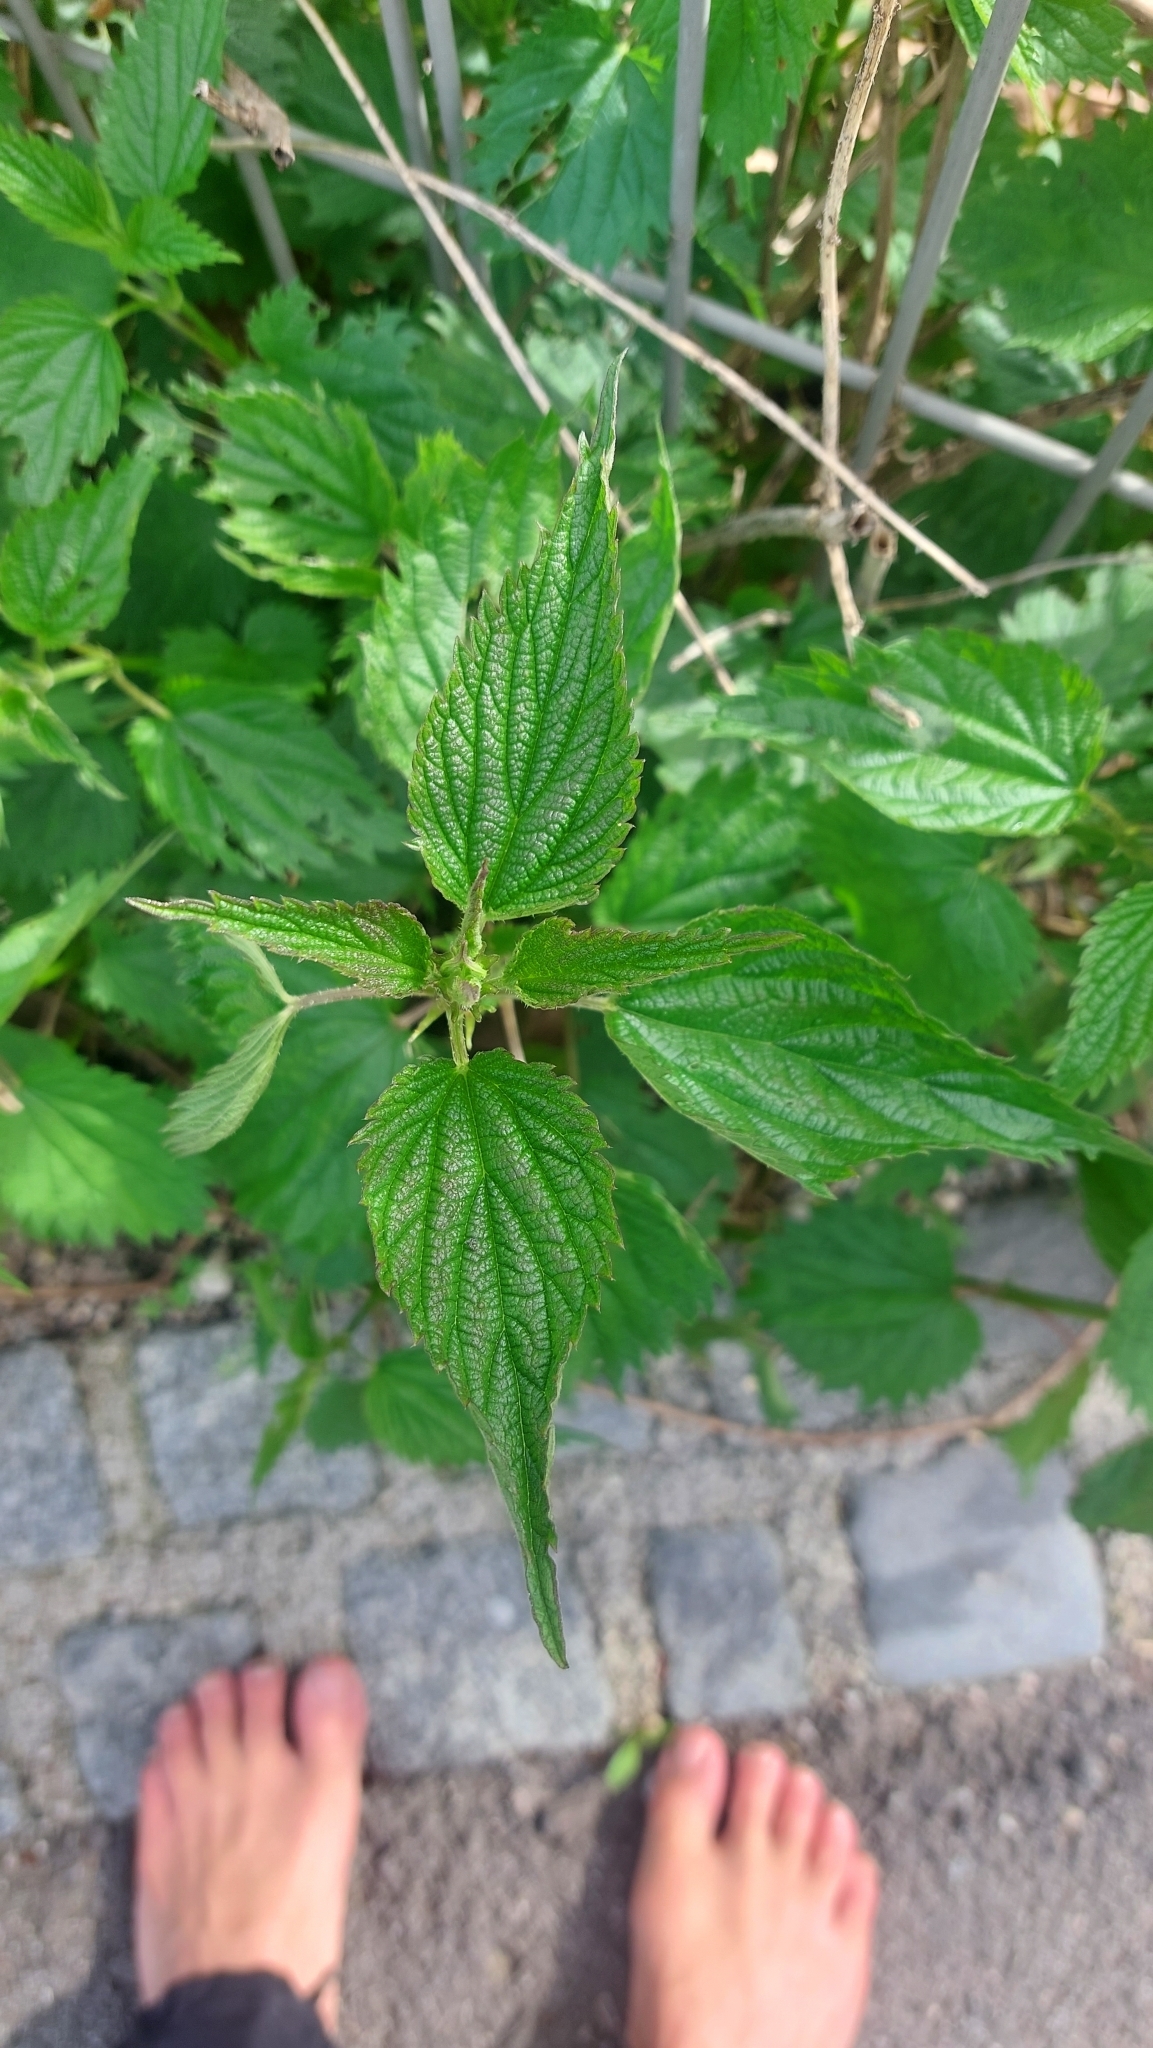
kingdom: Plantae
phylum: Tracheophyta
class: Magnoliopsida
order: Rosales
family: Urticaceae
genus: Urtica
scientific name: Urtica dioica
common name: Common nettle
